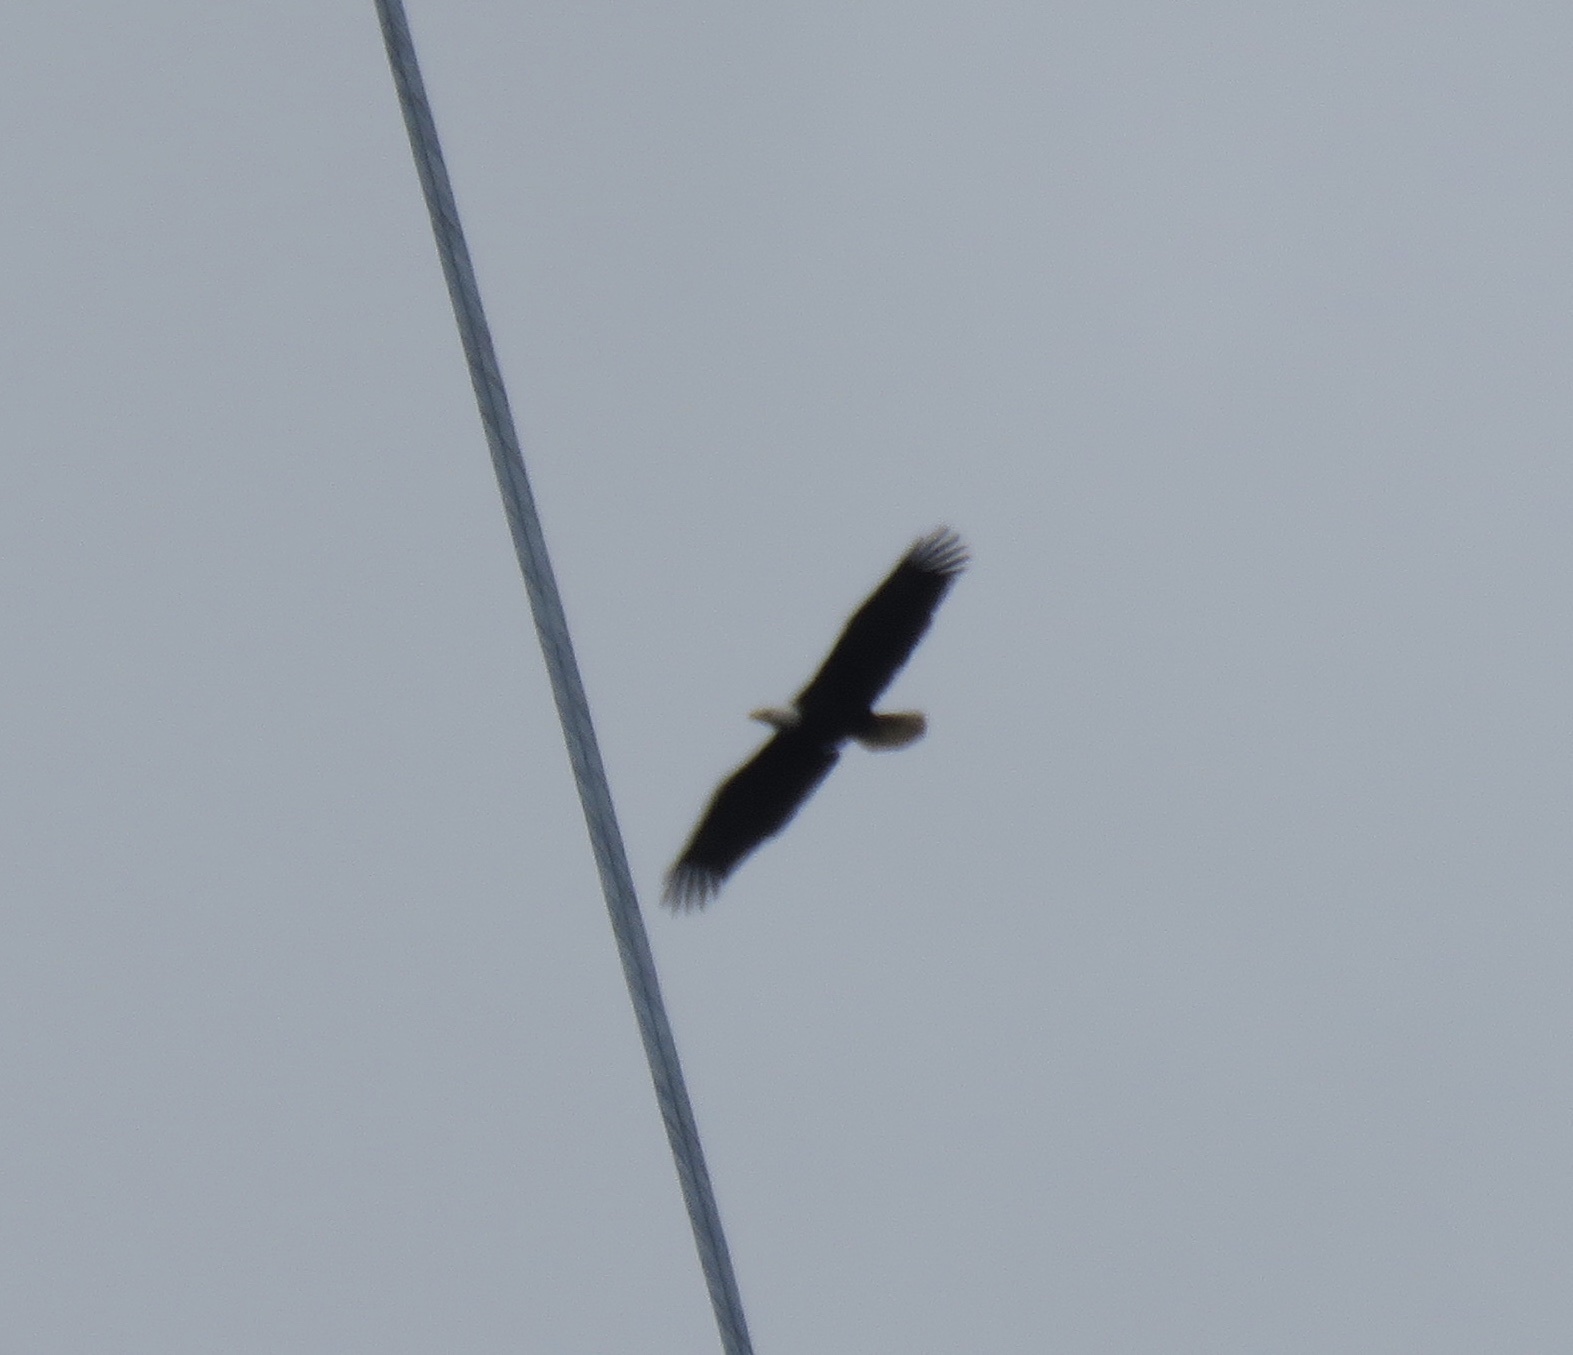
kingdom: Animalia
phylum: Chordata
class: Aves
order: Accipitriformes
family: Accipitridae
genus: Haliaeetus
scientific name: Haliaeetus leucocephalus
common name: Bald eagle
